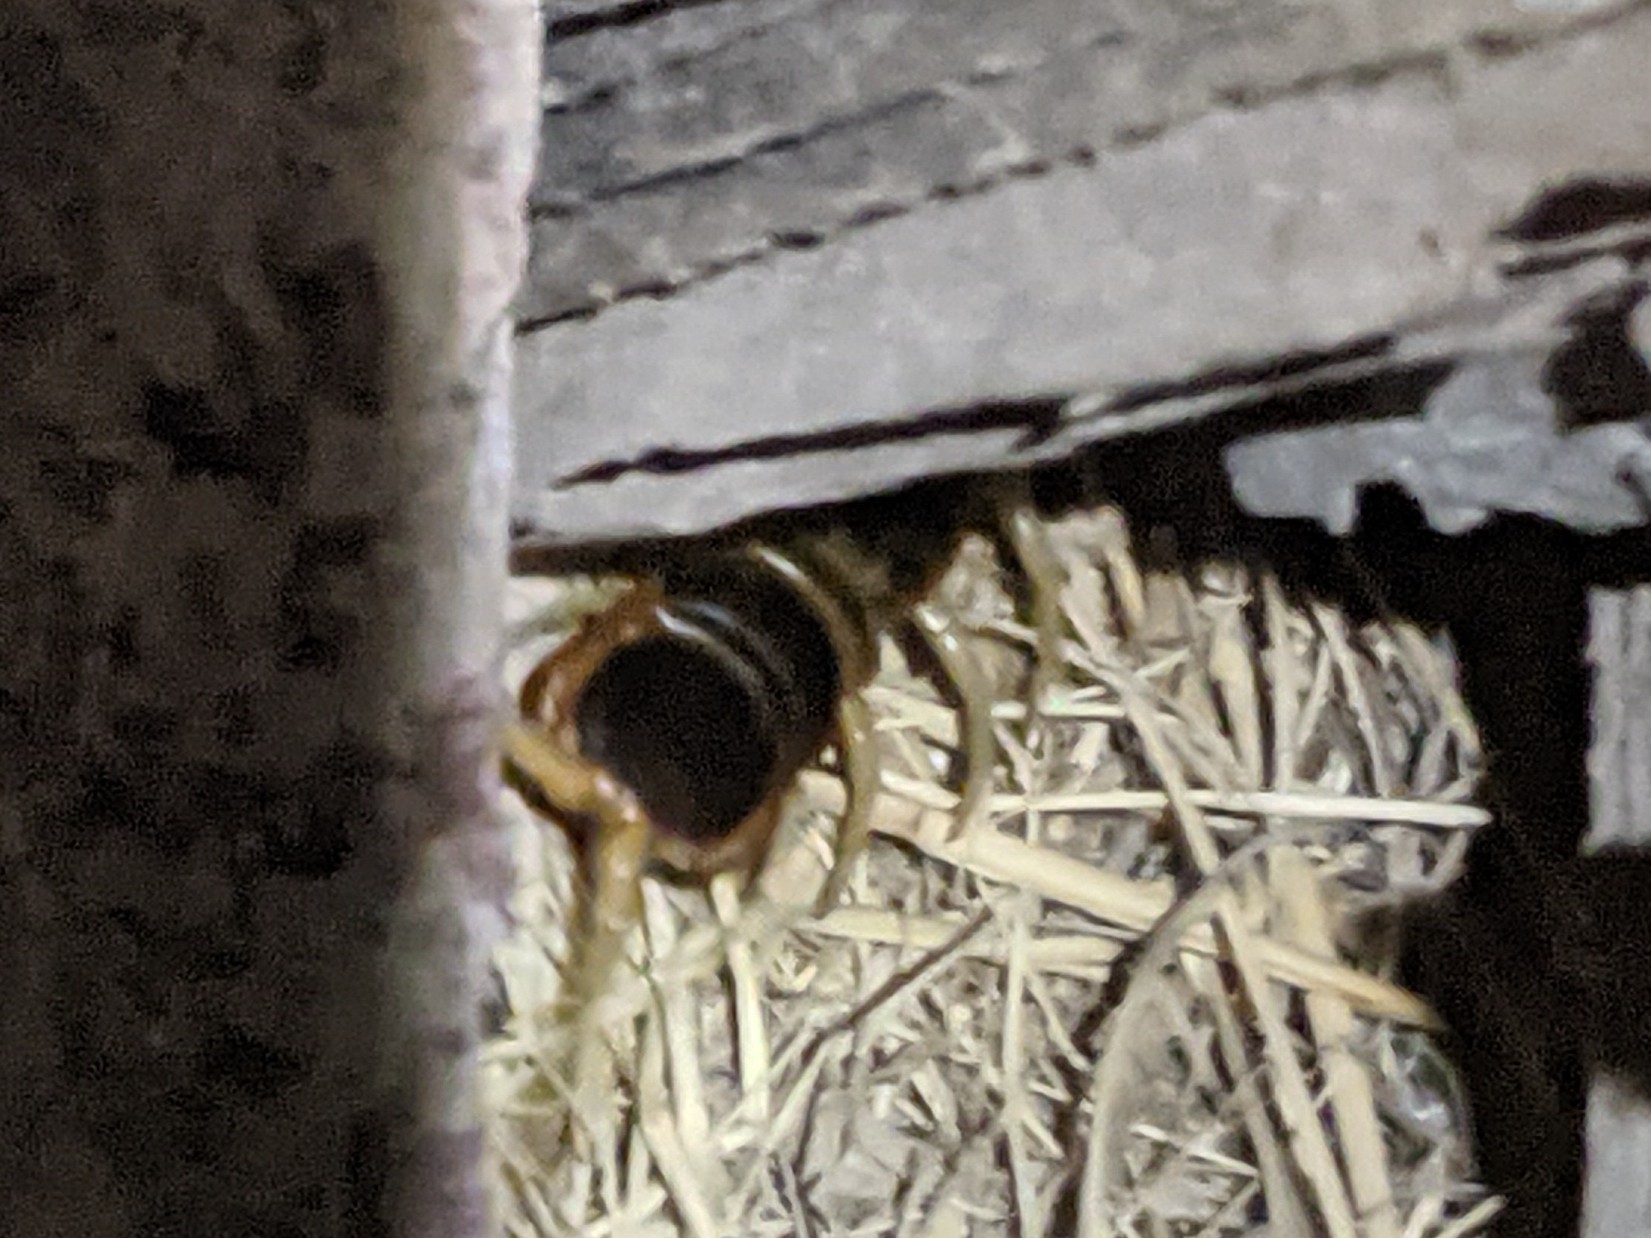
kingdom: Animalia
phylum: Arthropoda
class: Chilopoda
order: Scolopendromorpha
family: Scolopendridae
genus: Scolopendra
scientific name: Scolopendra heros
